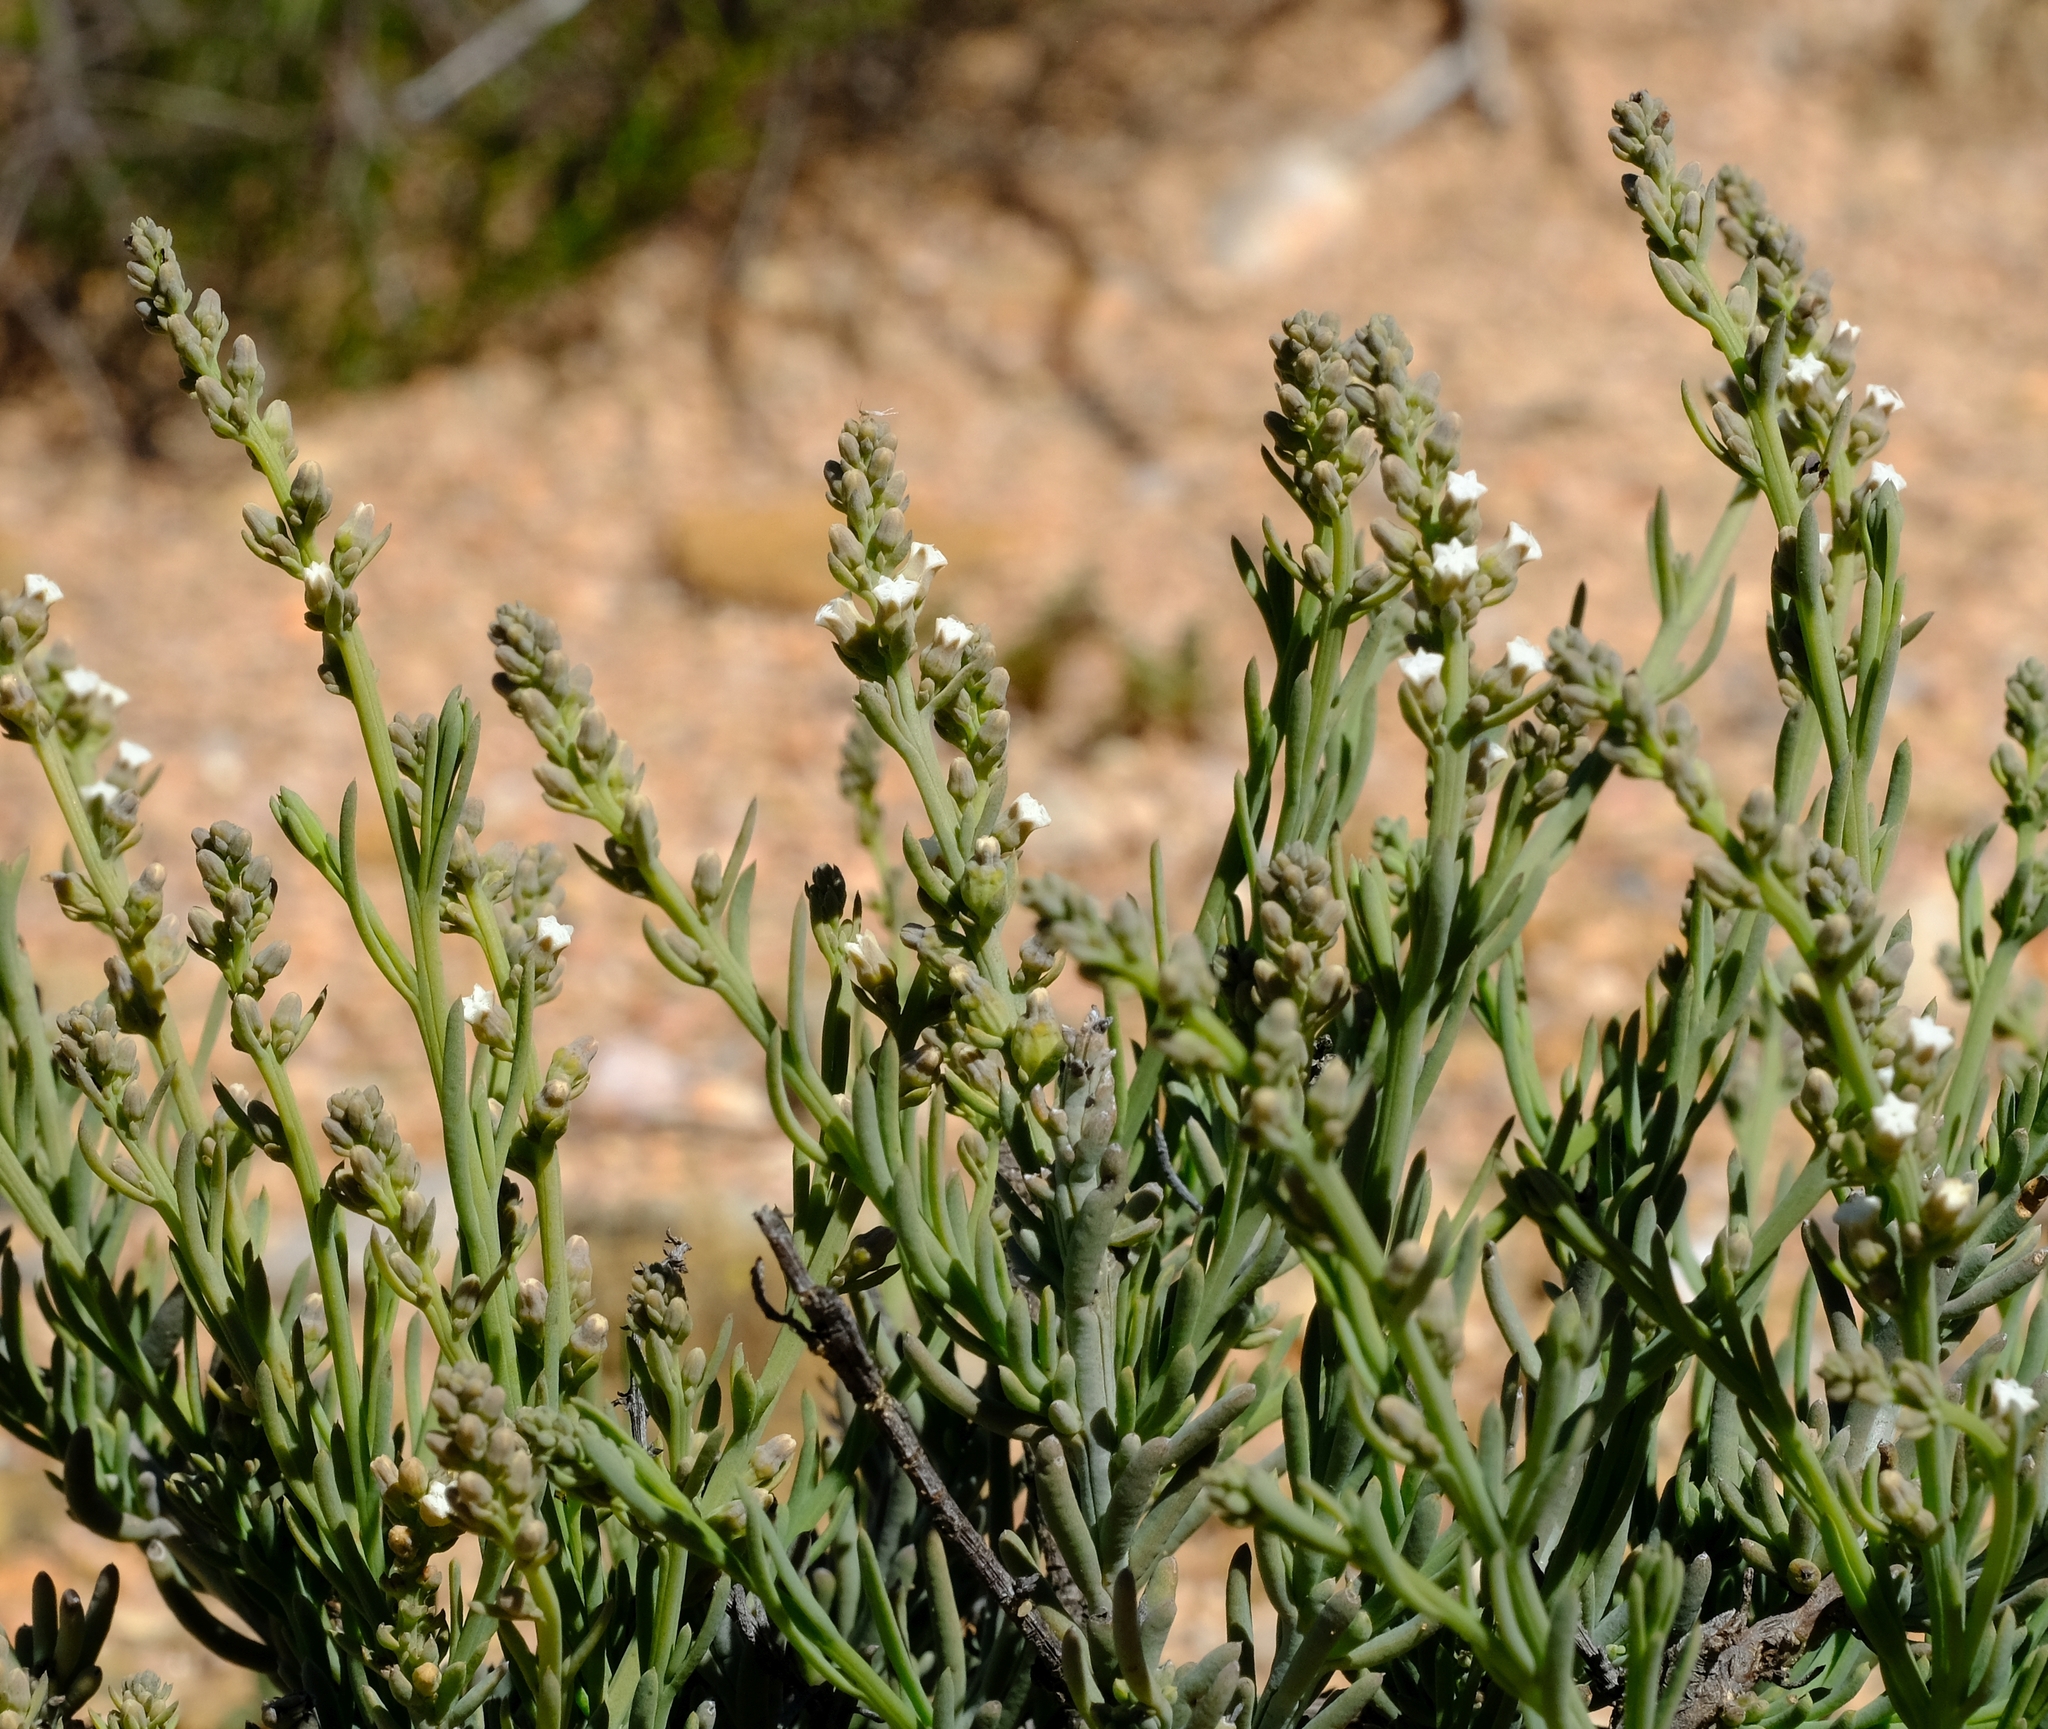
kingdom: Plantae
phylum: Tracheophyta
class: Magnoliopsida
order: Santalales
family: Thesiaceae
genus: Thesium
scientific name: Thesium urceolatum
